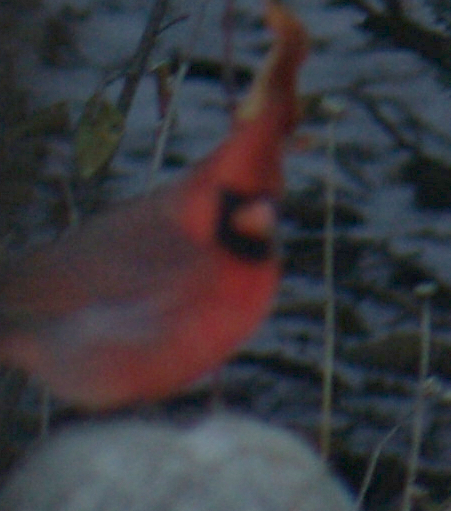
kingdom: Animalia
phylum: Chordata
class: Aves
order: Passeriformes
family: Cardinalidae
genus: Cardinalis
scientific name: Cardinalis cardinalis
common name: Northern cardinal
